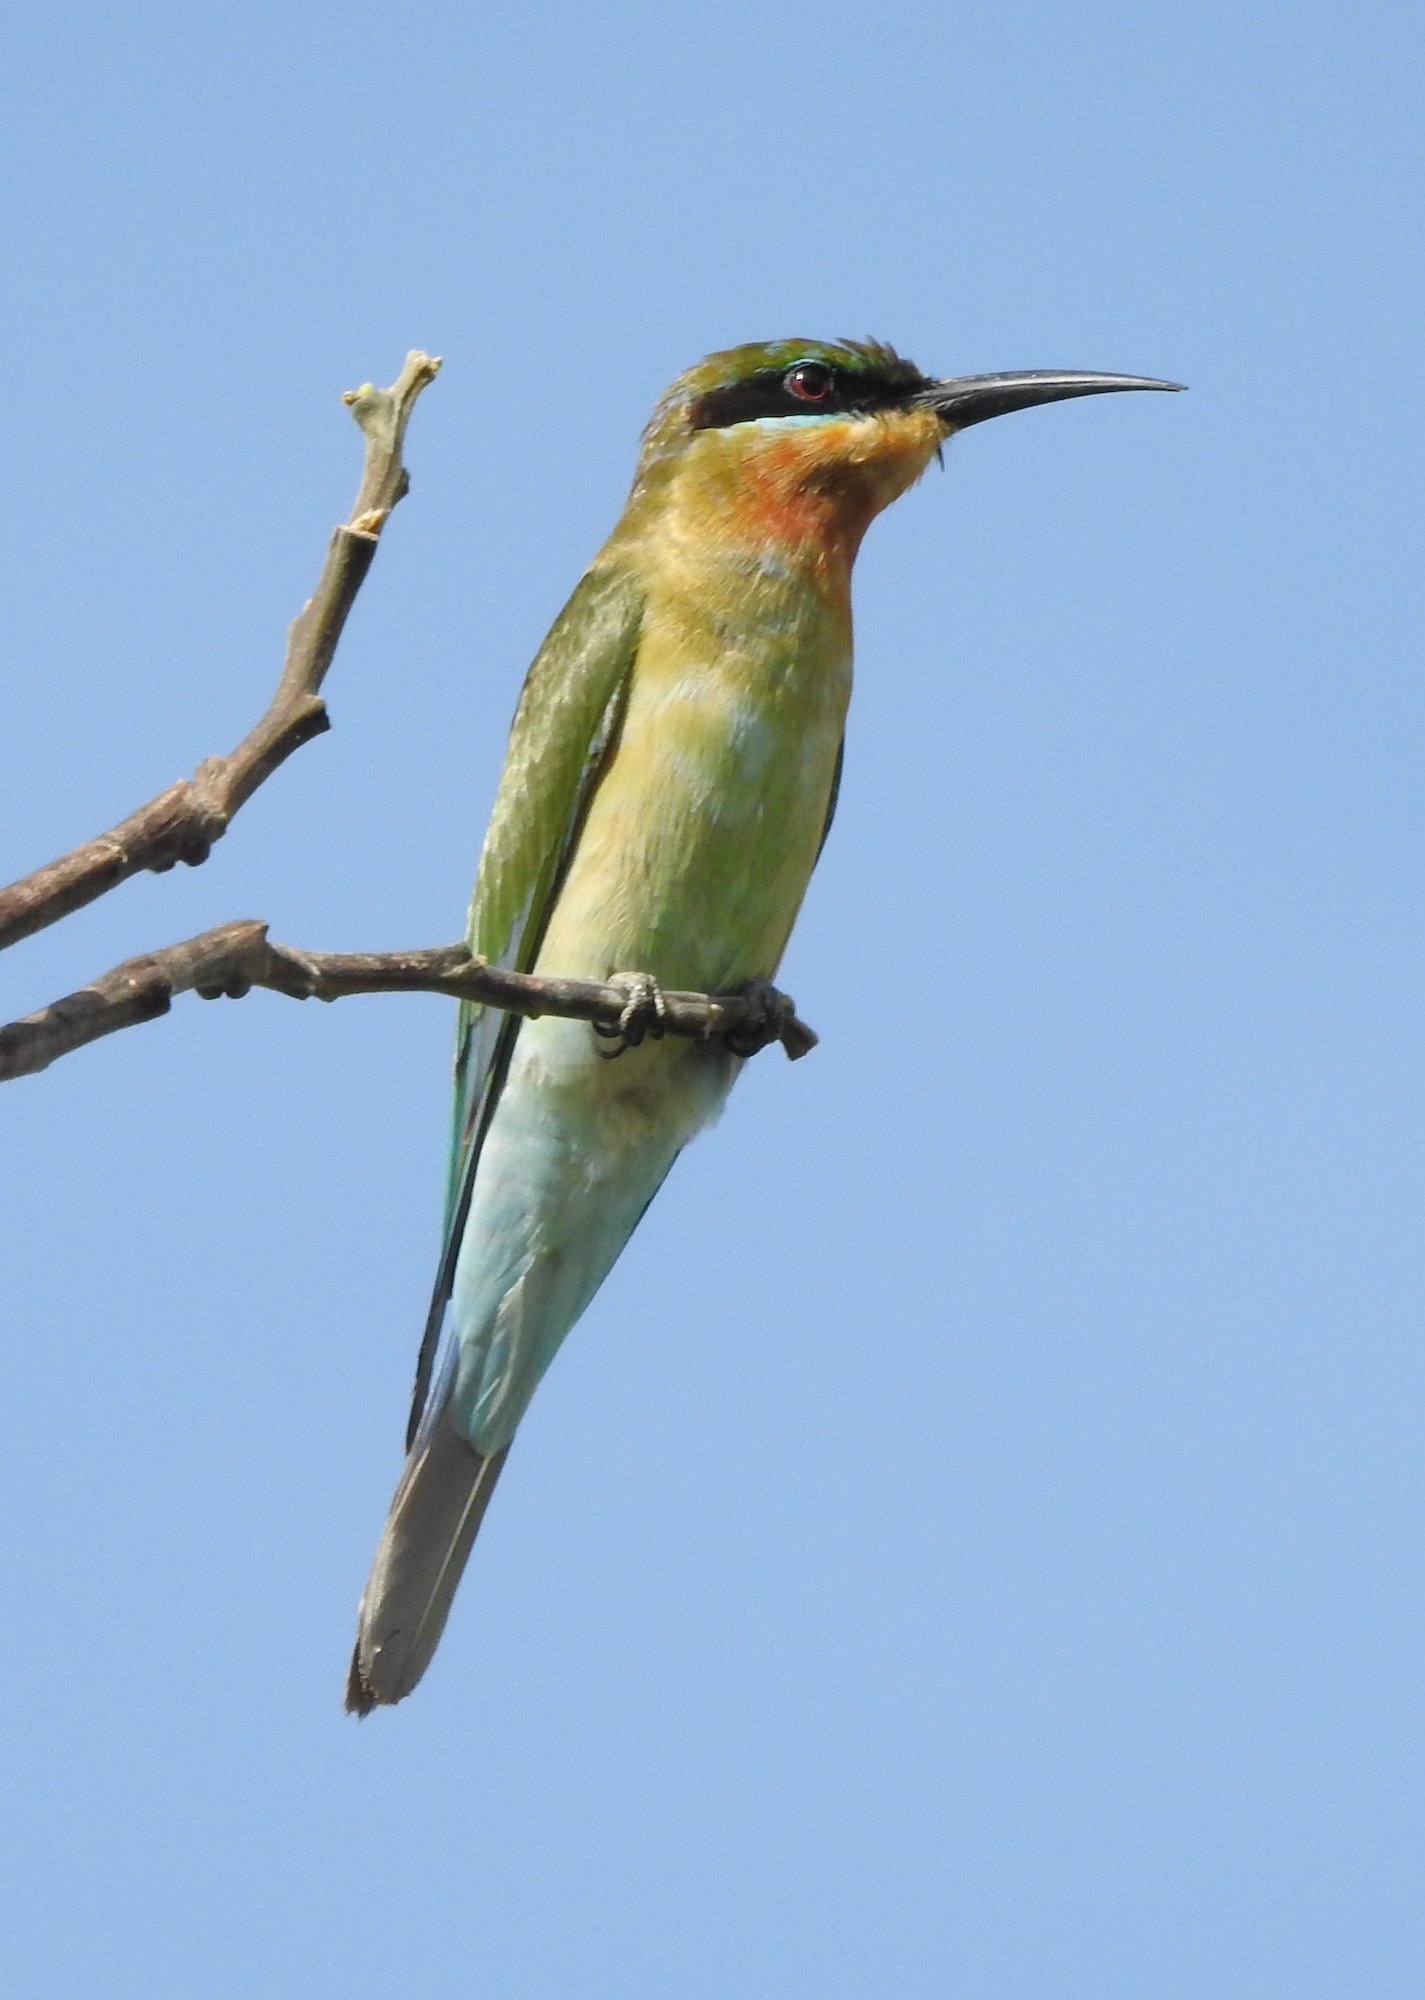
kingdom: Animalia
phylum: Chordata
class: Aves
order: Coraciiformes
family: Meropidae
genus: Merops
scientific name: Merops philippinus
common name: Blue-tailed bee-eater
